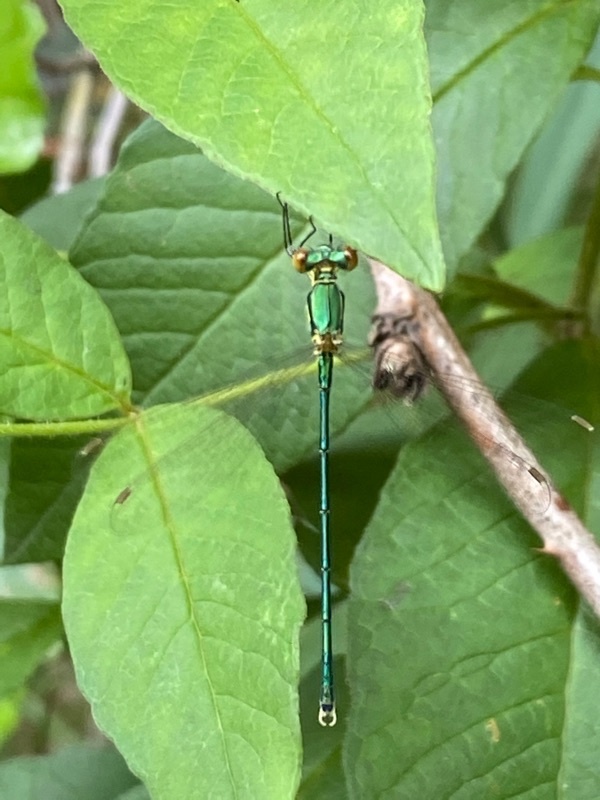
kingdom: Animalia
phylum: Arthropoda
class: Insecta
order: Odonata
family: Lestidae
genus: Lestes
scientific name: Lestes virens
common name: Small emerald spreadwing
